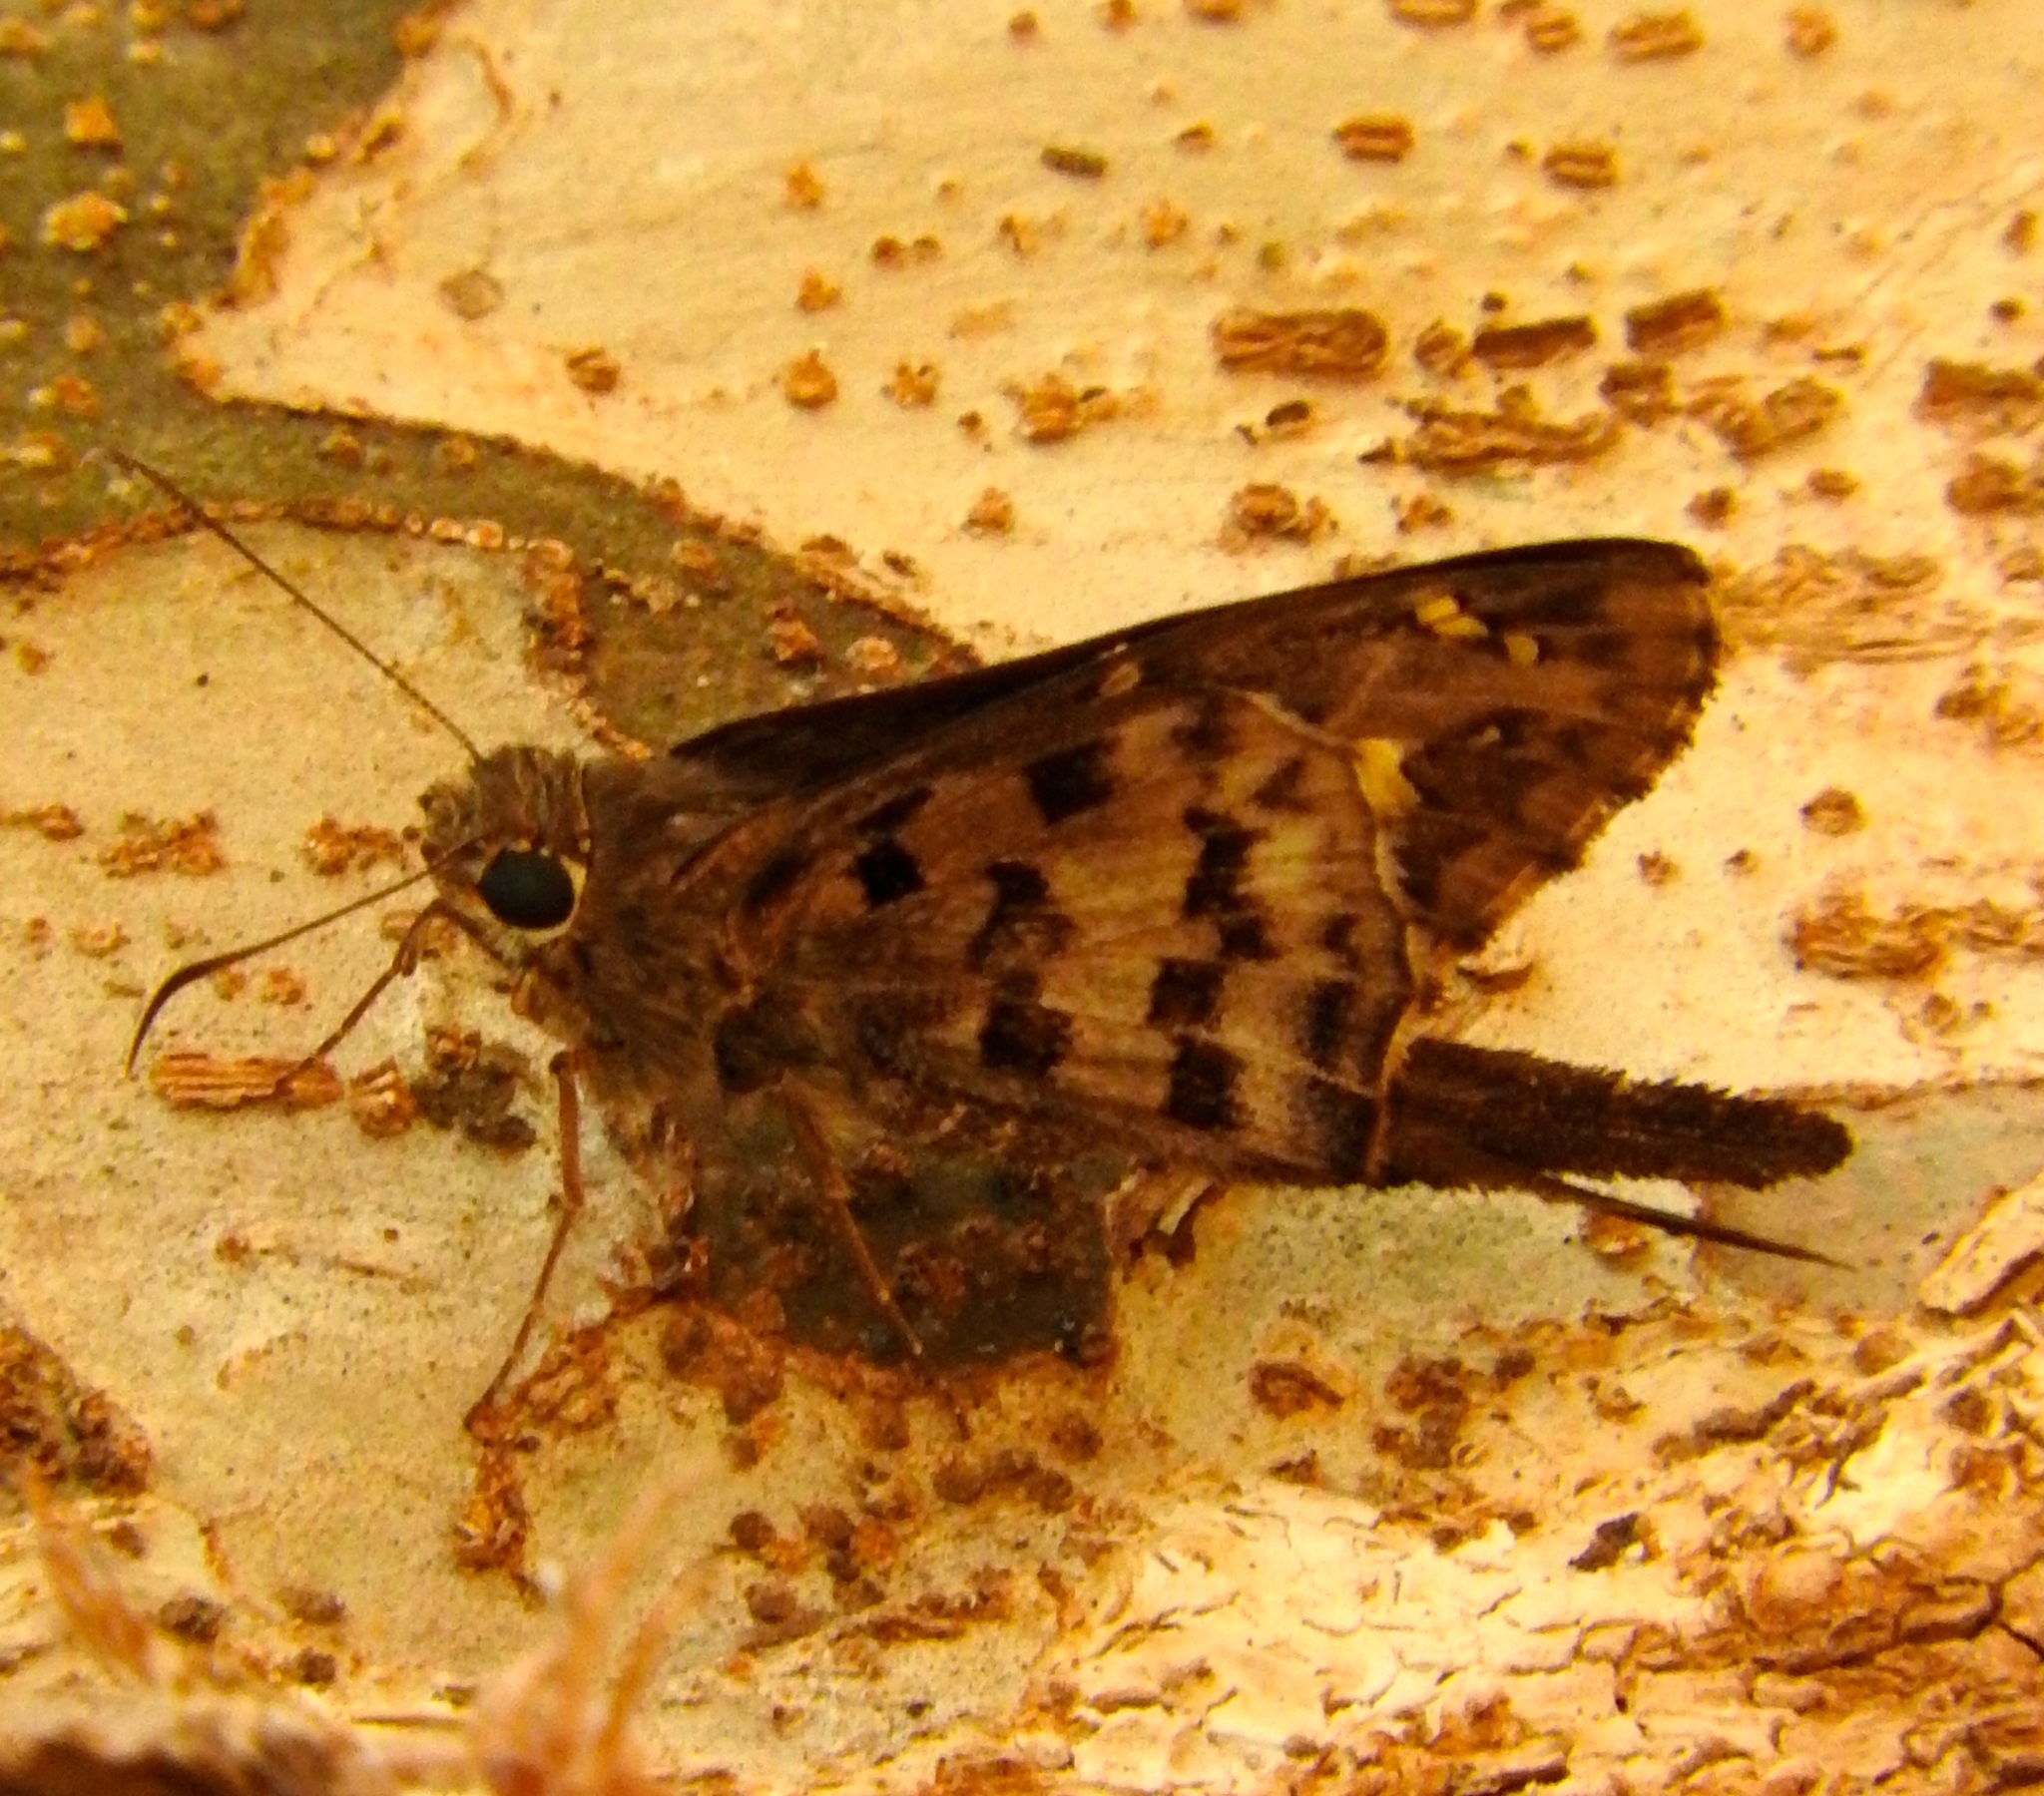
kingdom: Animalia
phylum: Arthropoda
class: Insecta
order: Lepidoptera
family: Hesperiidae
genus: Thorybes
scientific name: Thorybes
